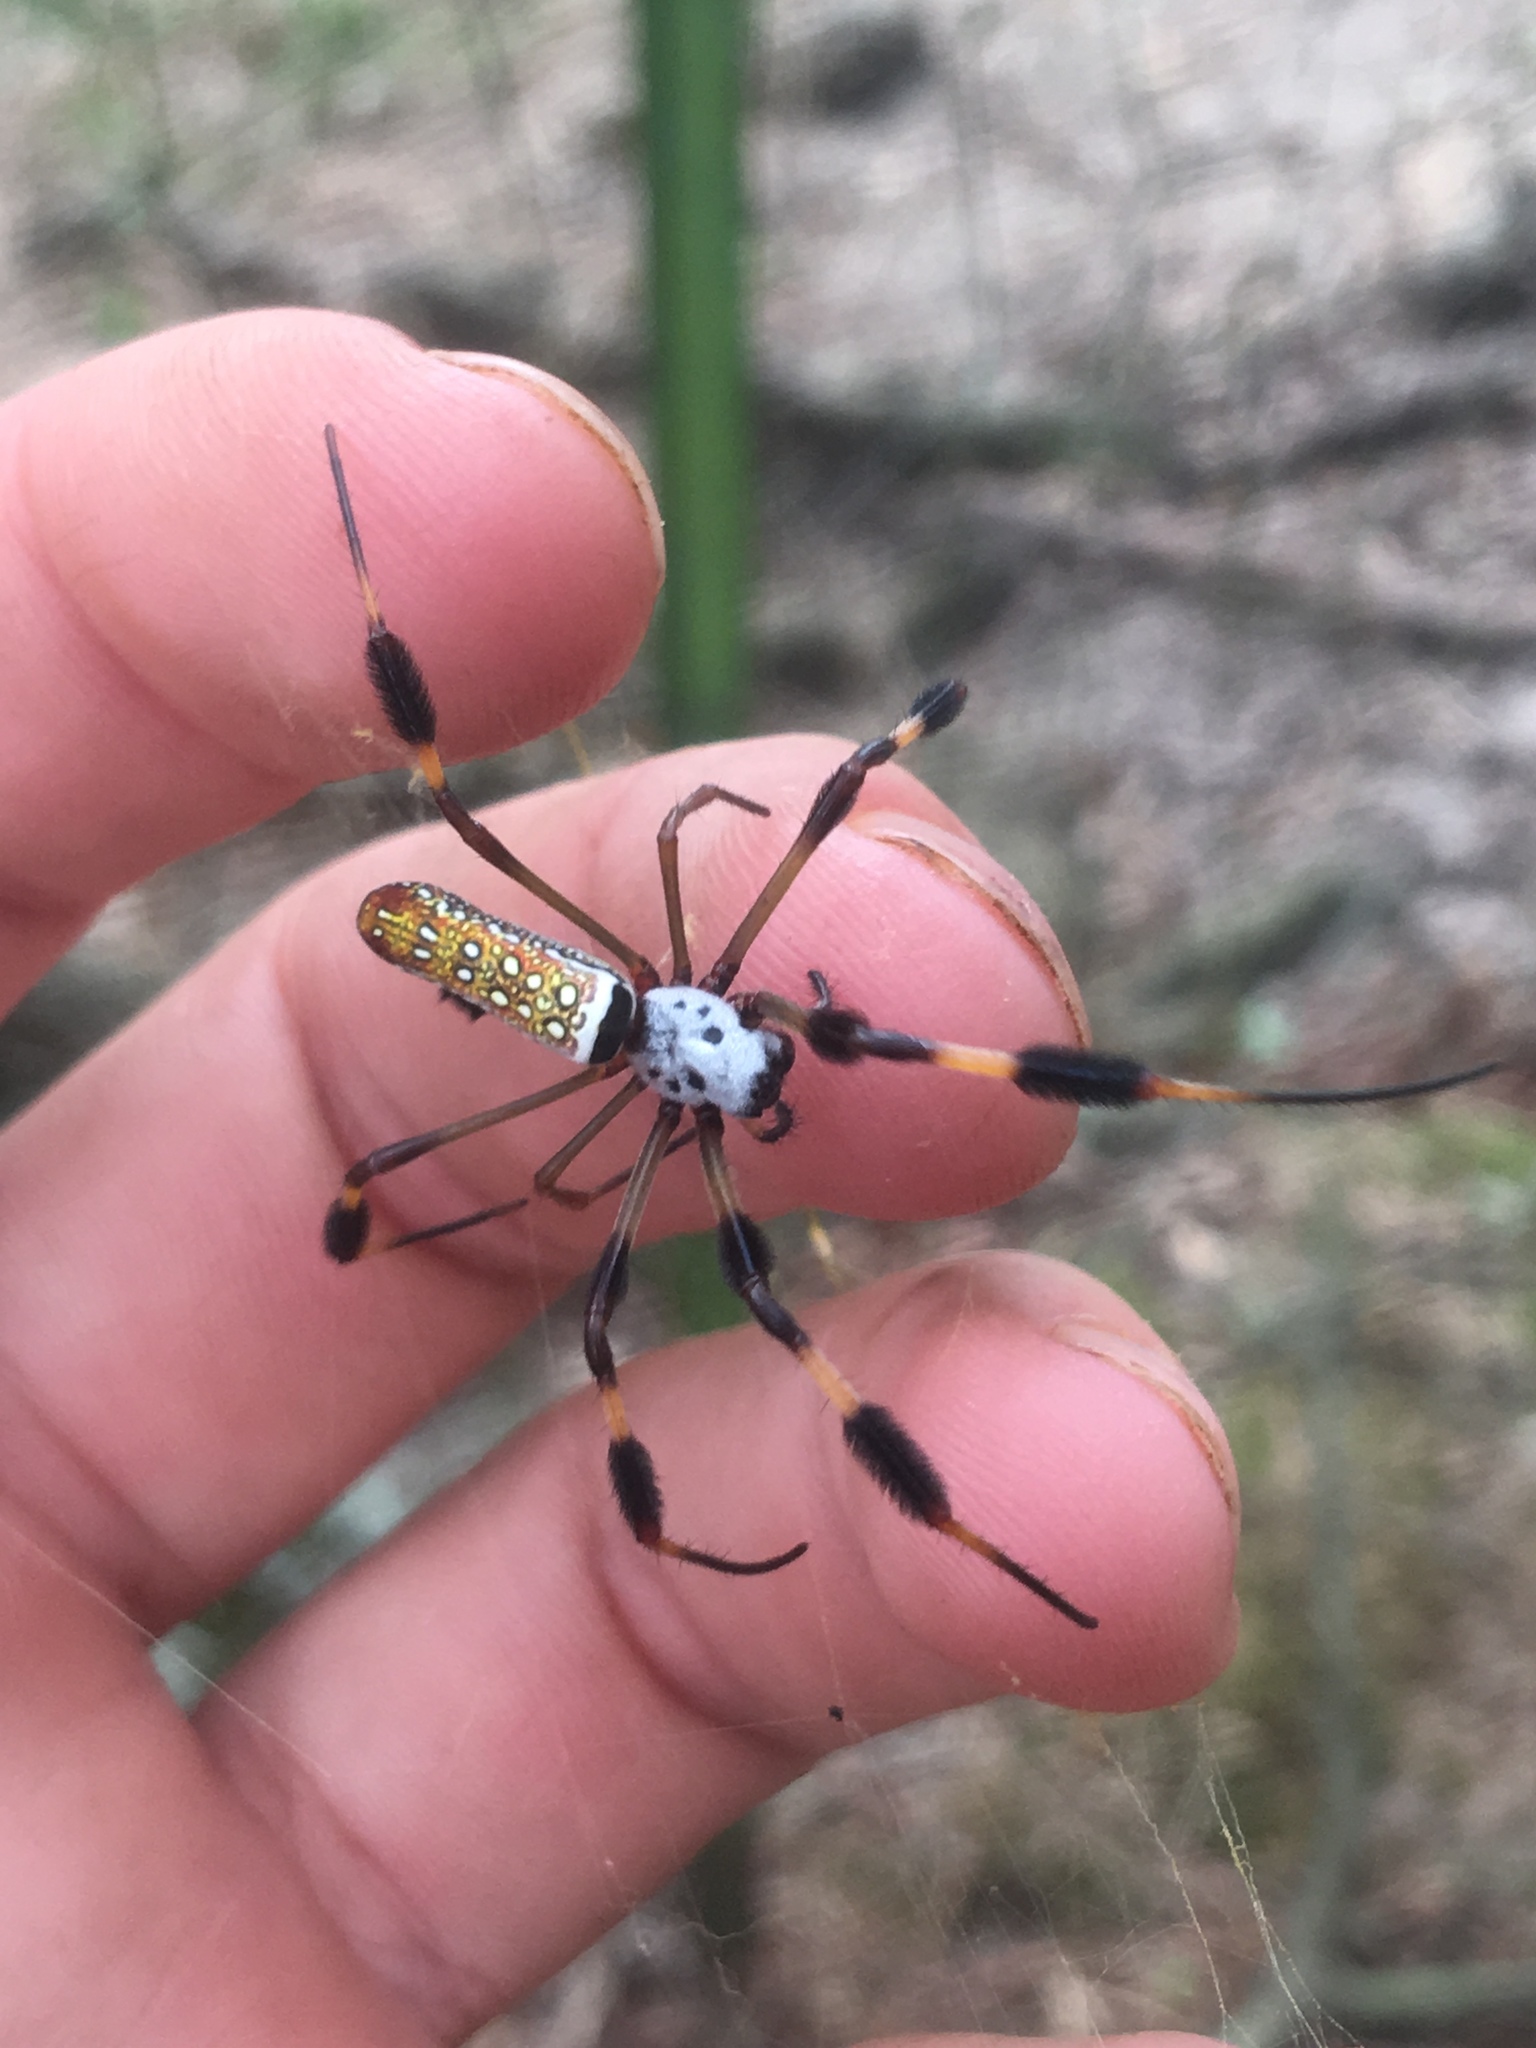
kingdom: Animalia
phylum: Arthropoda
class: Arachnida
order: Araneae
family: Araneidae
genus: Trichonephila
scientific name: Trichonephila clavipes
